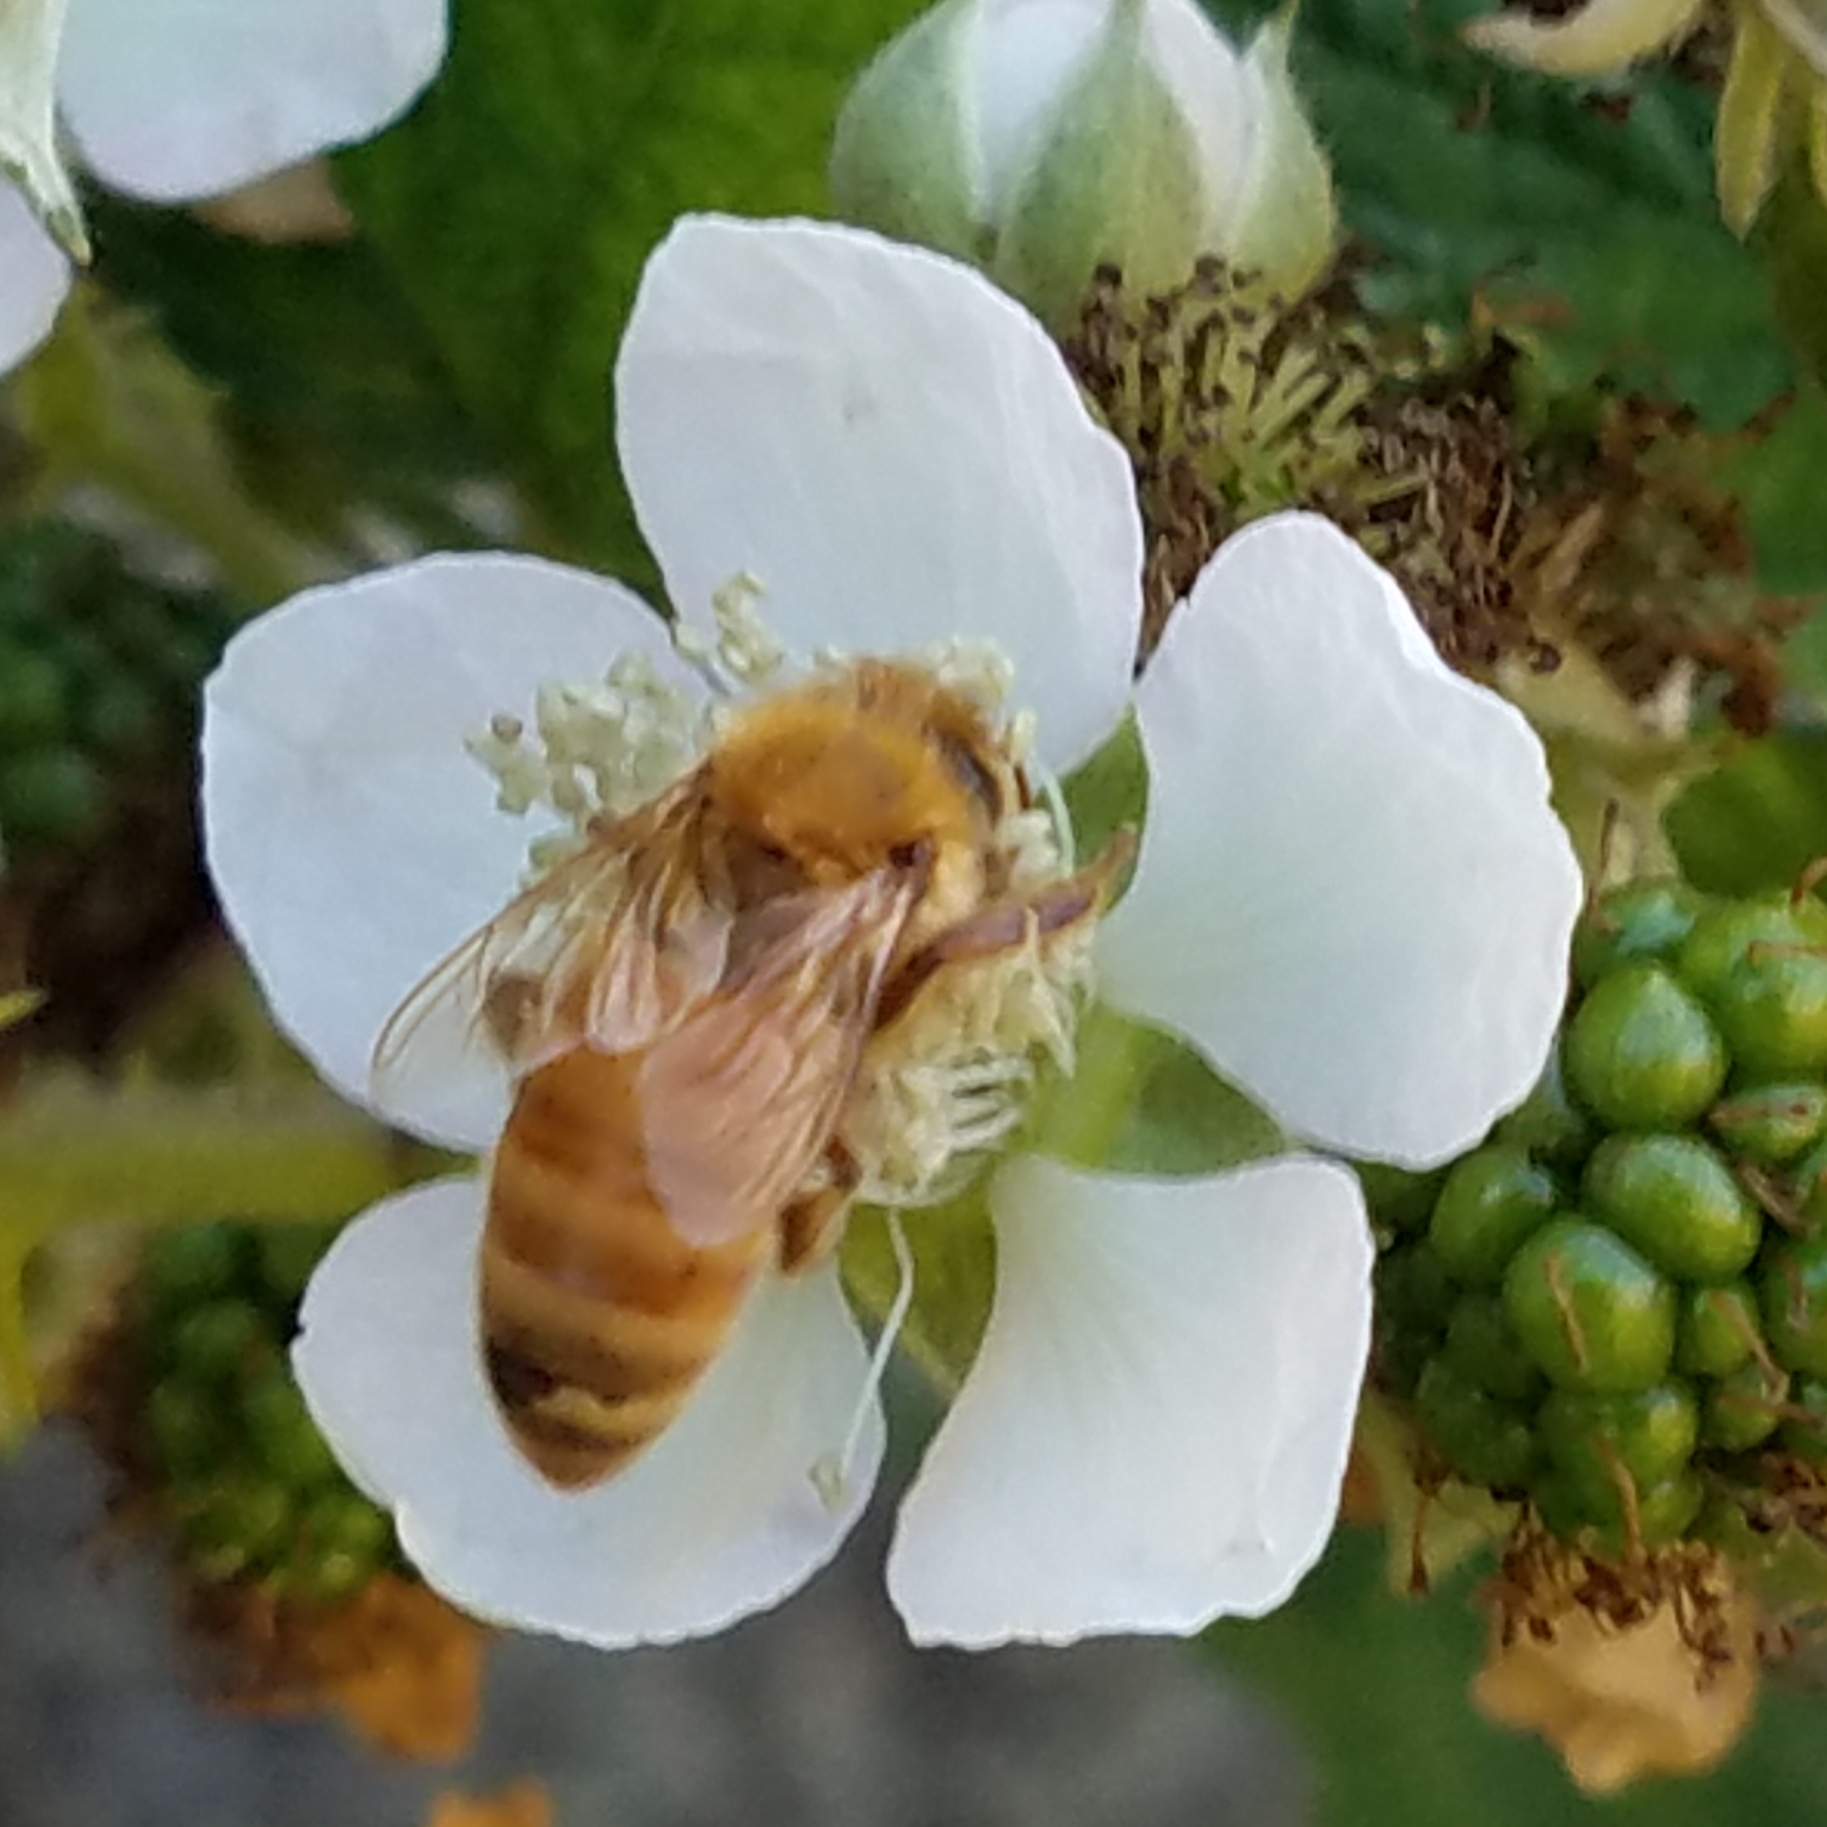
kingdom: Animalia
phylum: Arthropoda
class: Insecta
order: Hymenoptera
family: Apidae
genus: Apis
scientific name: Apis mellifera
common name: Honey bee
